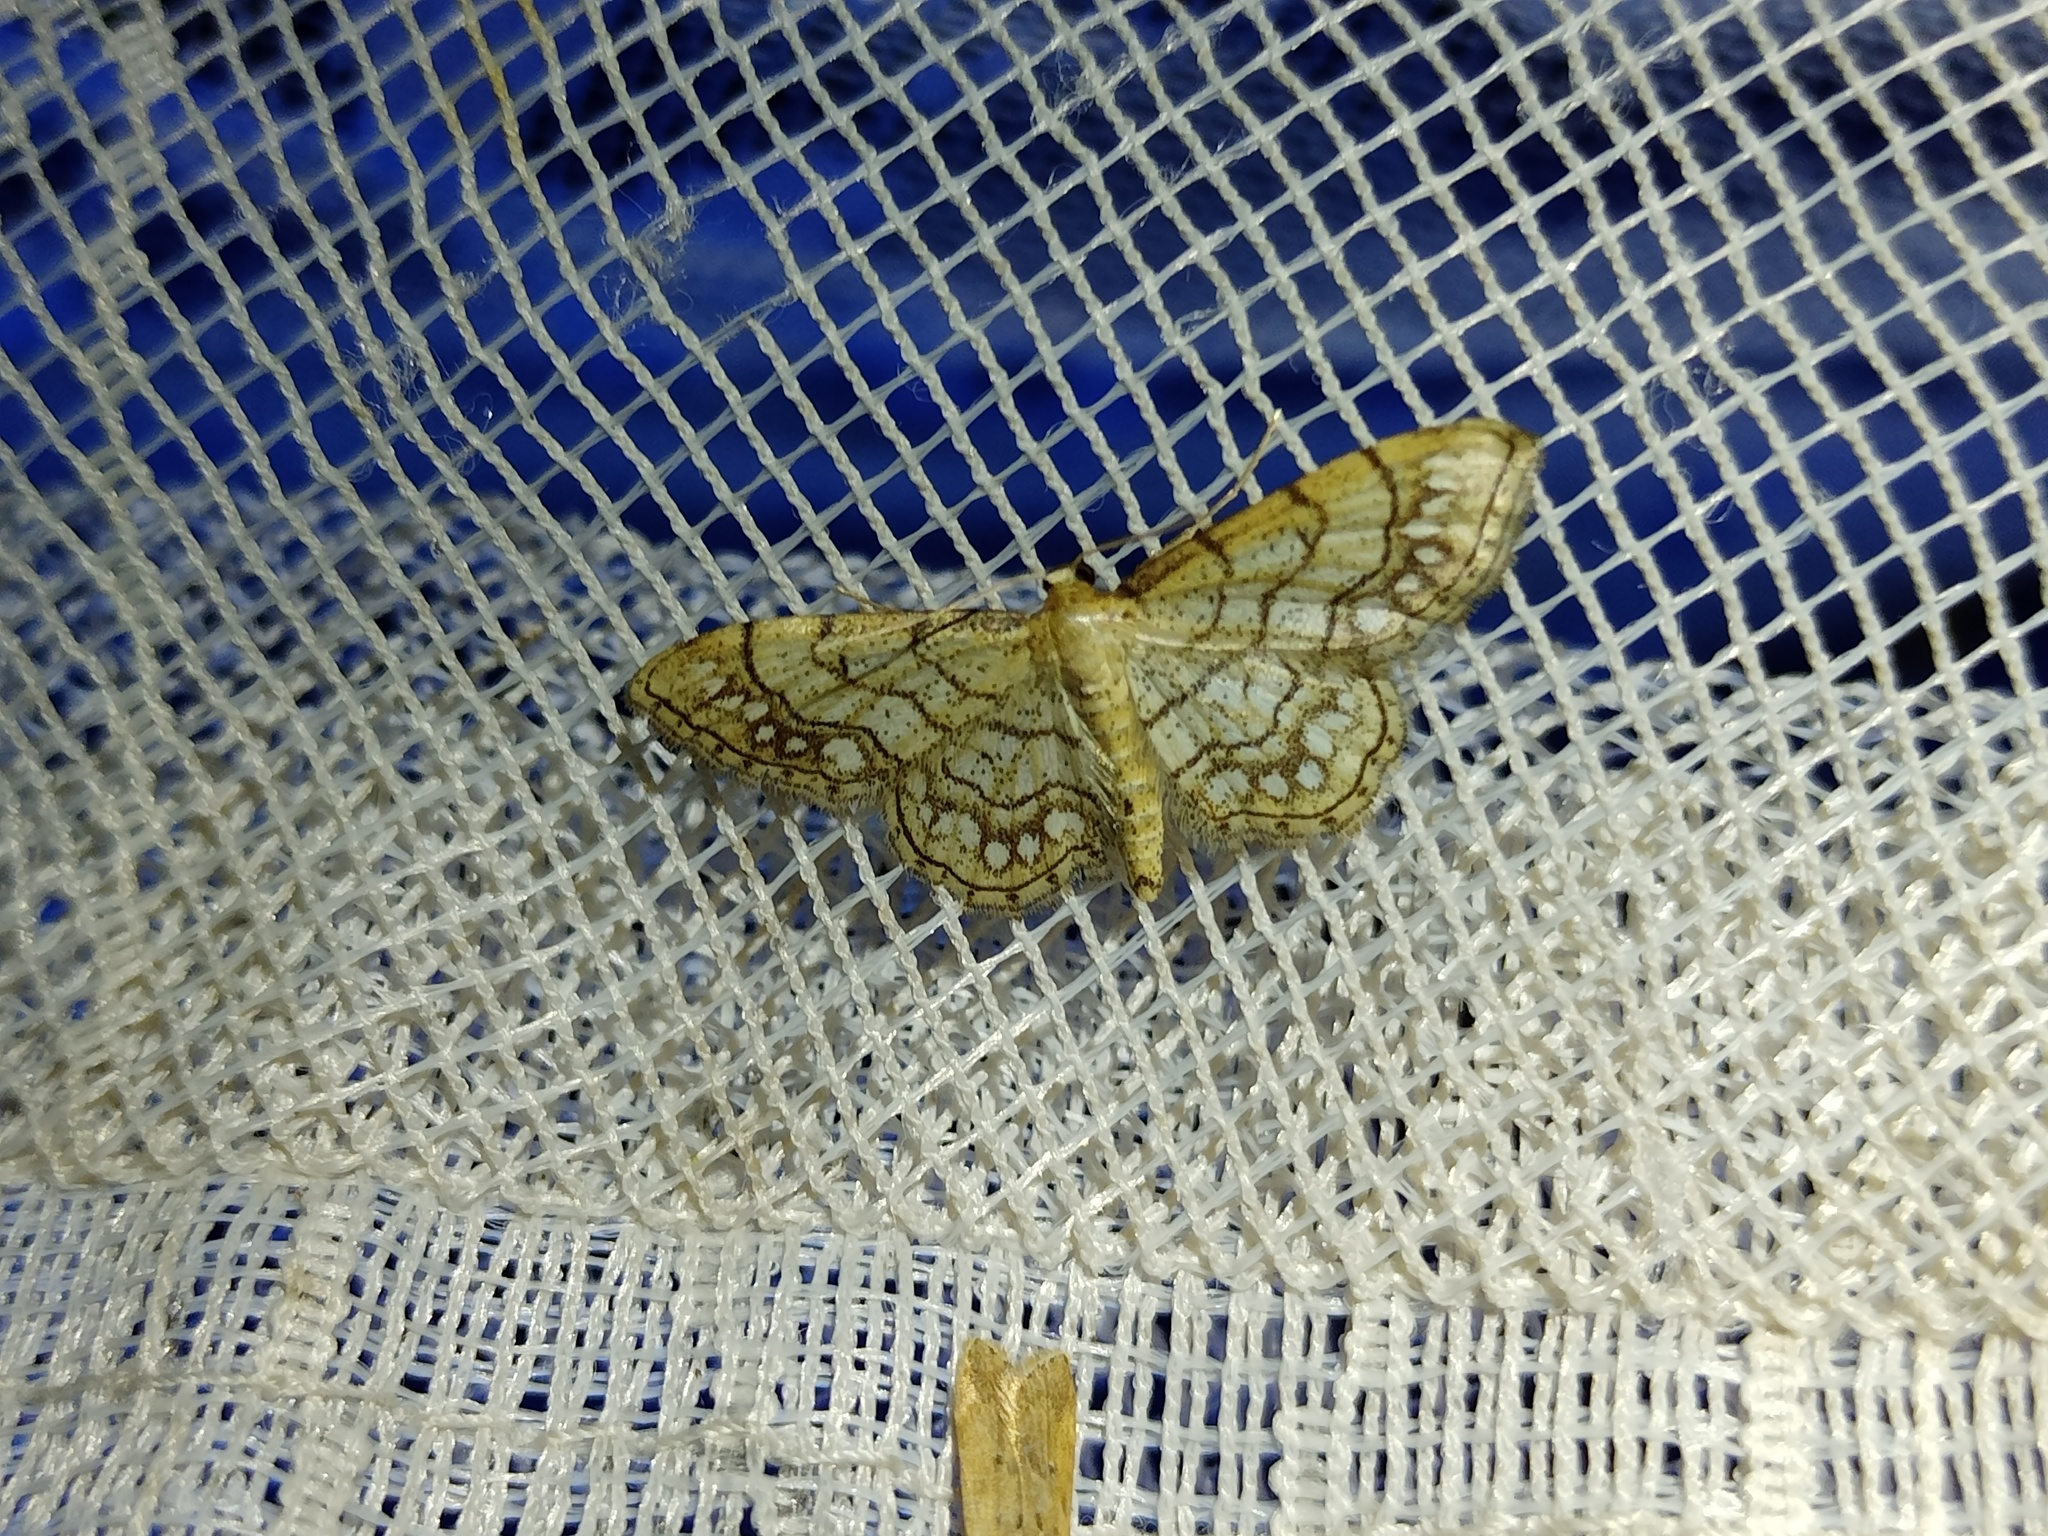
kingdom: Animalia
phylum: Arthropoda
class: Insecta
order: Lepidoptera
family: Geometridae
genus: Idaea
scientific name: Idaea moniliata
